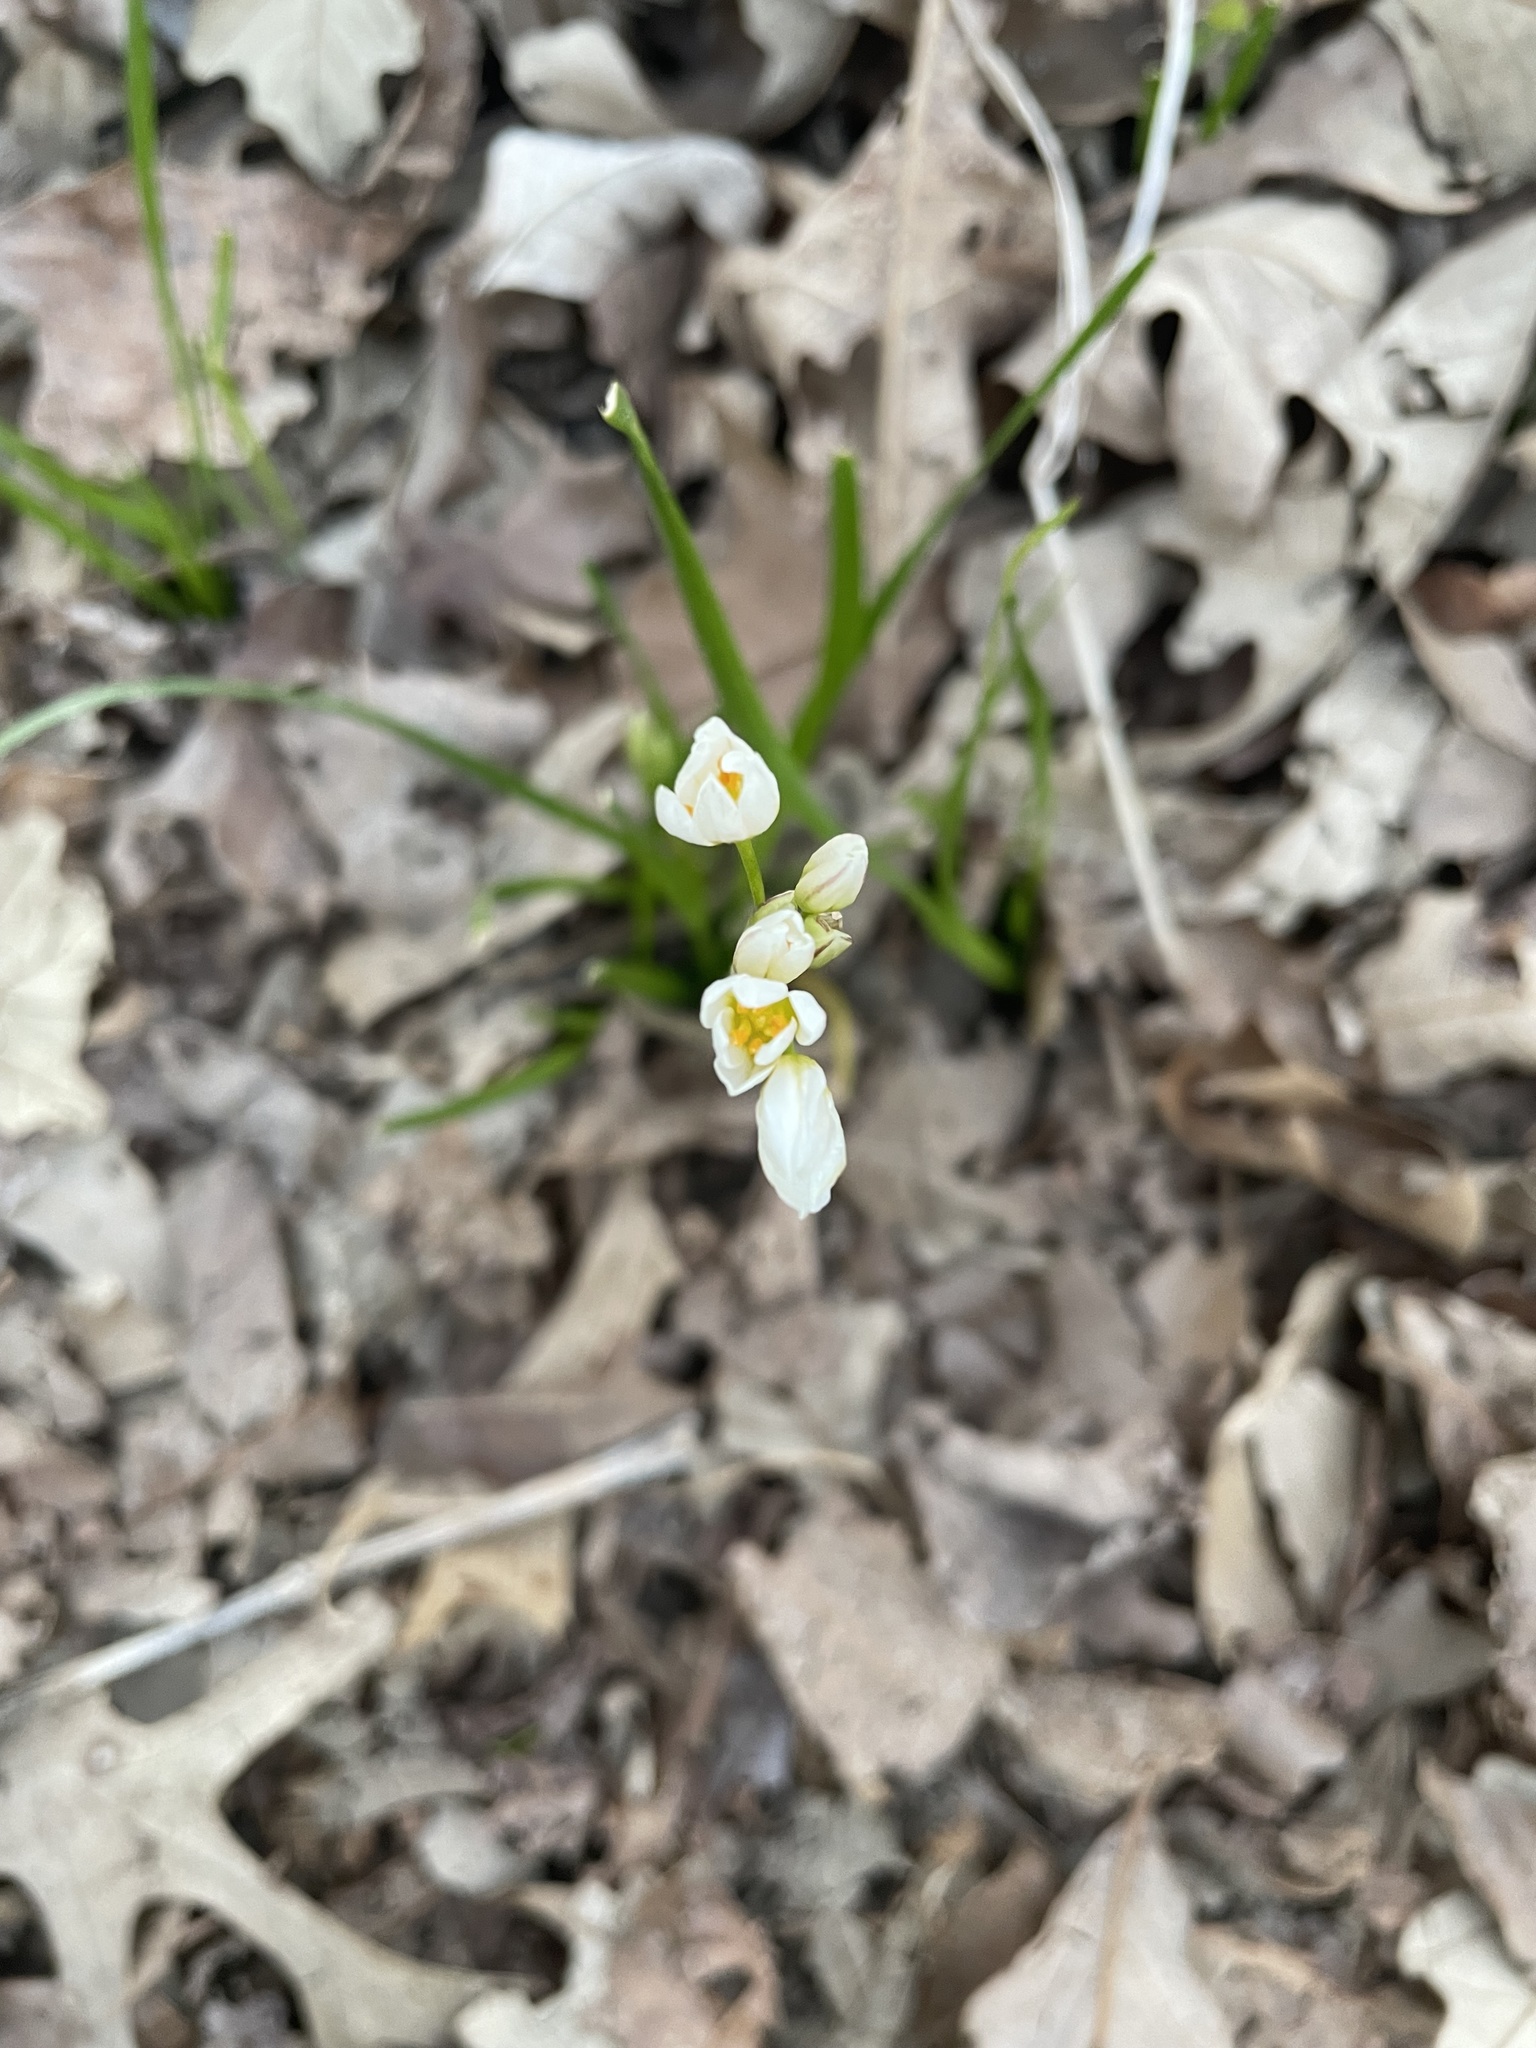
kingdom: Plantae
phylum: Tracheophyta
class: Liliopsida
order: Asparagales
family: Amaryllidaceae
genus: Nothoscordum
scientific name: Nothoscordum bivalve
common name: Crow-poison
